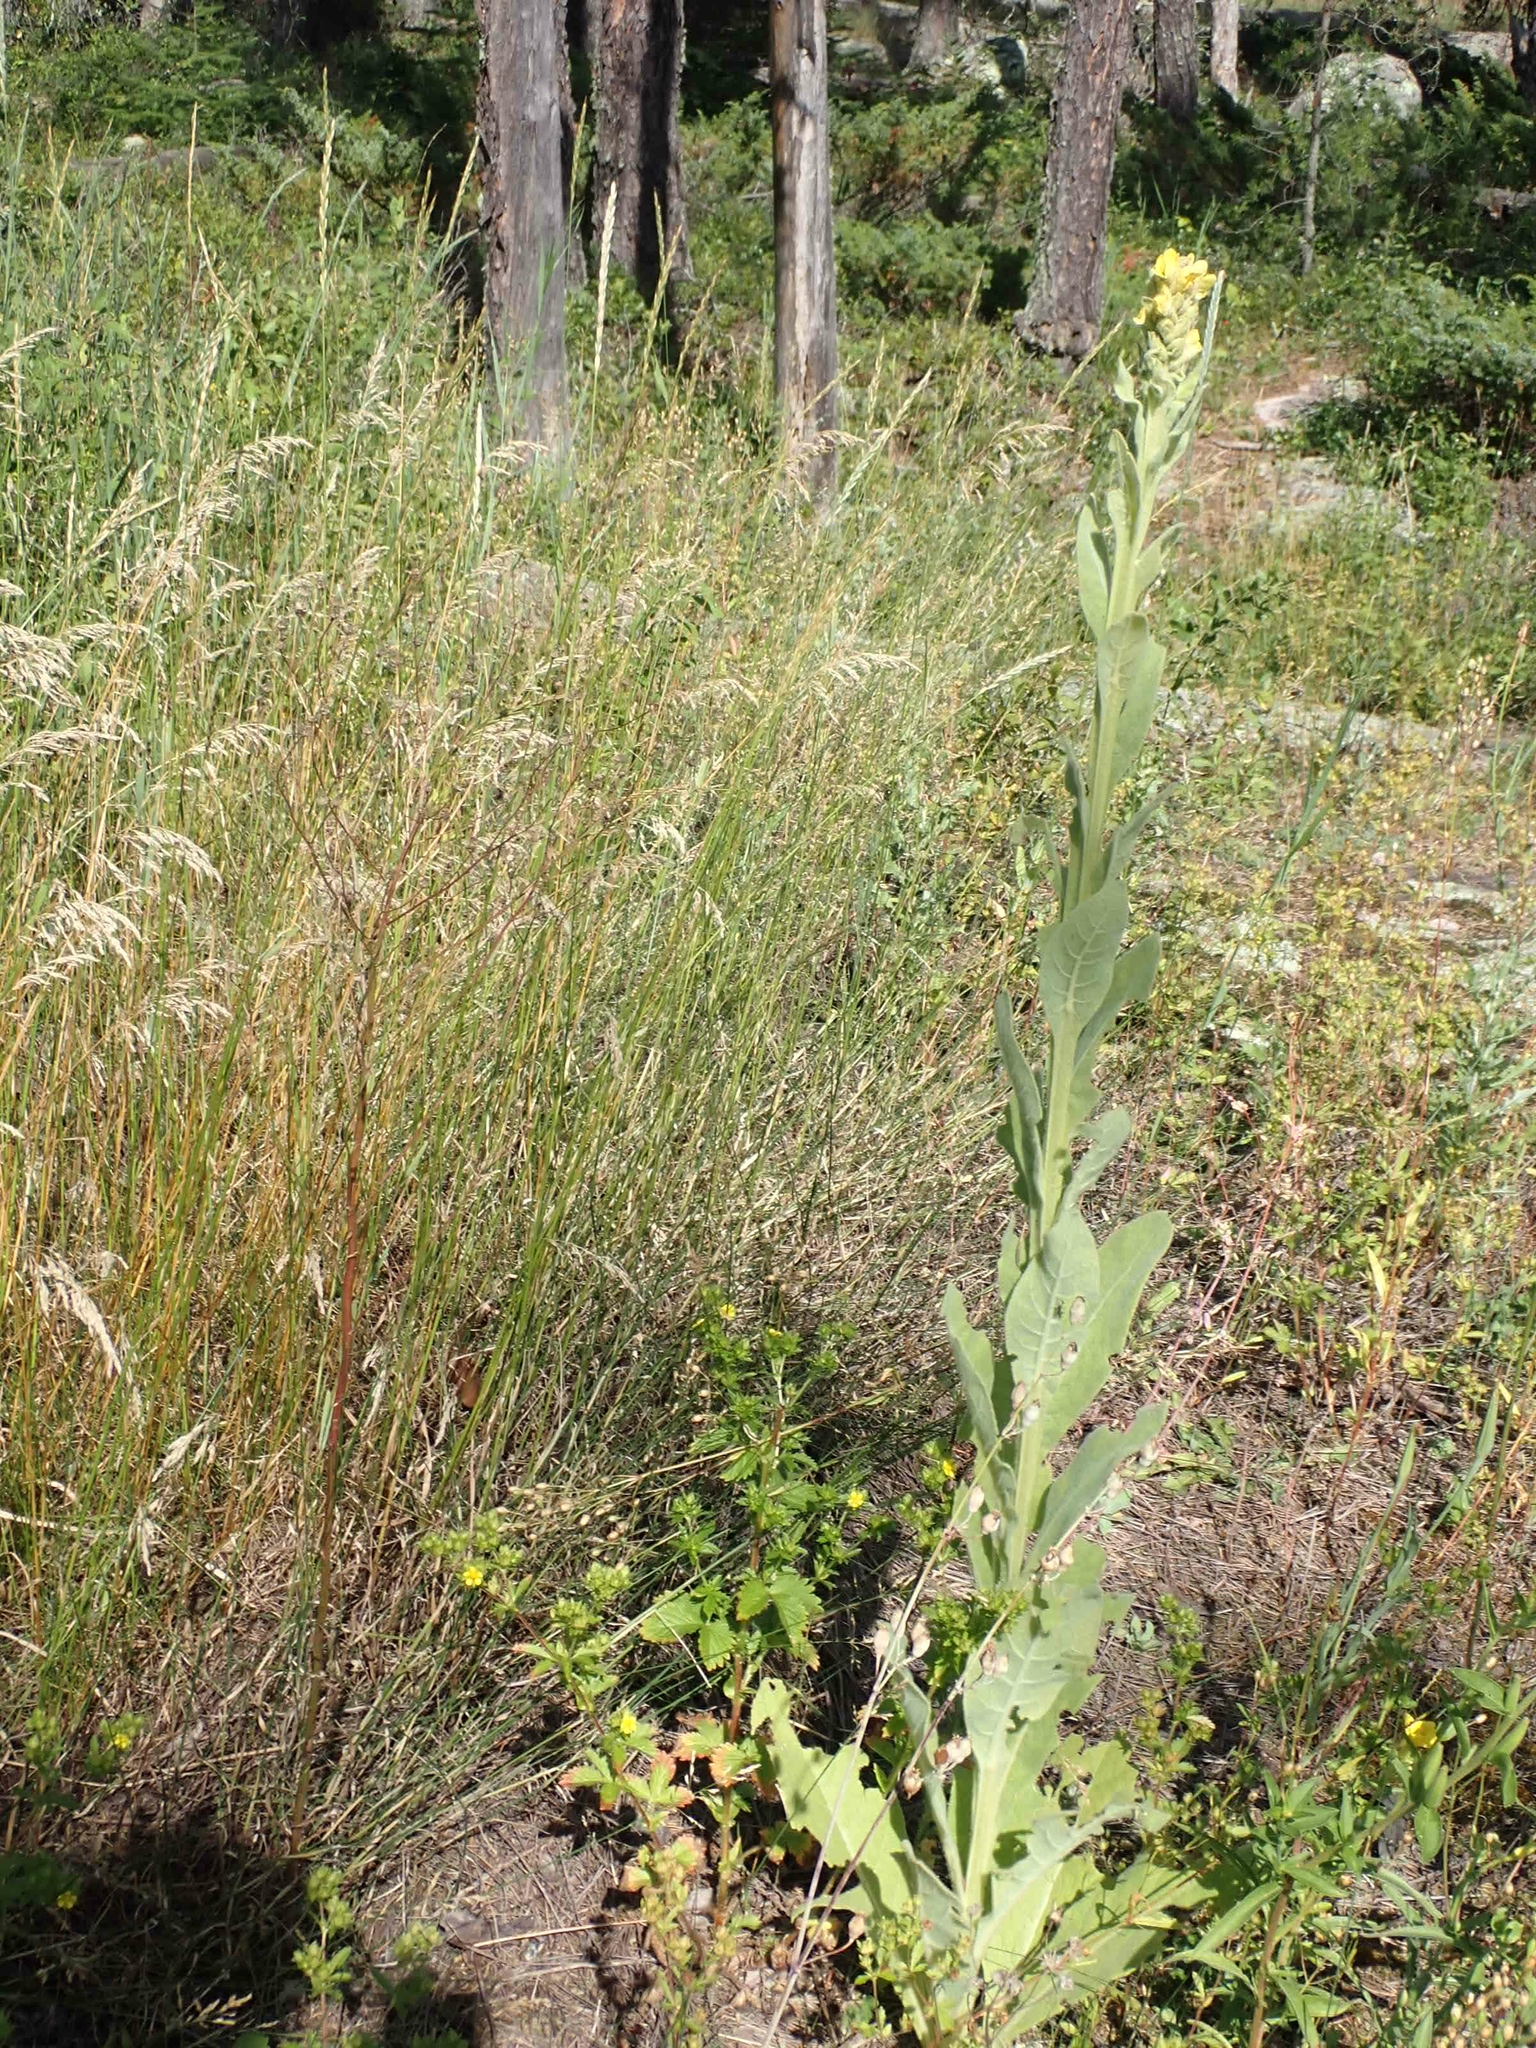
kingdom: Plantae
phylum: Tracheophyta
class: Magnoliopsida
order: Lamiales
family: Scrophulariaceae
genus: Verbascum
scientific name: Verbascum thapsus
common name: Common mullein
